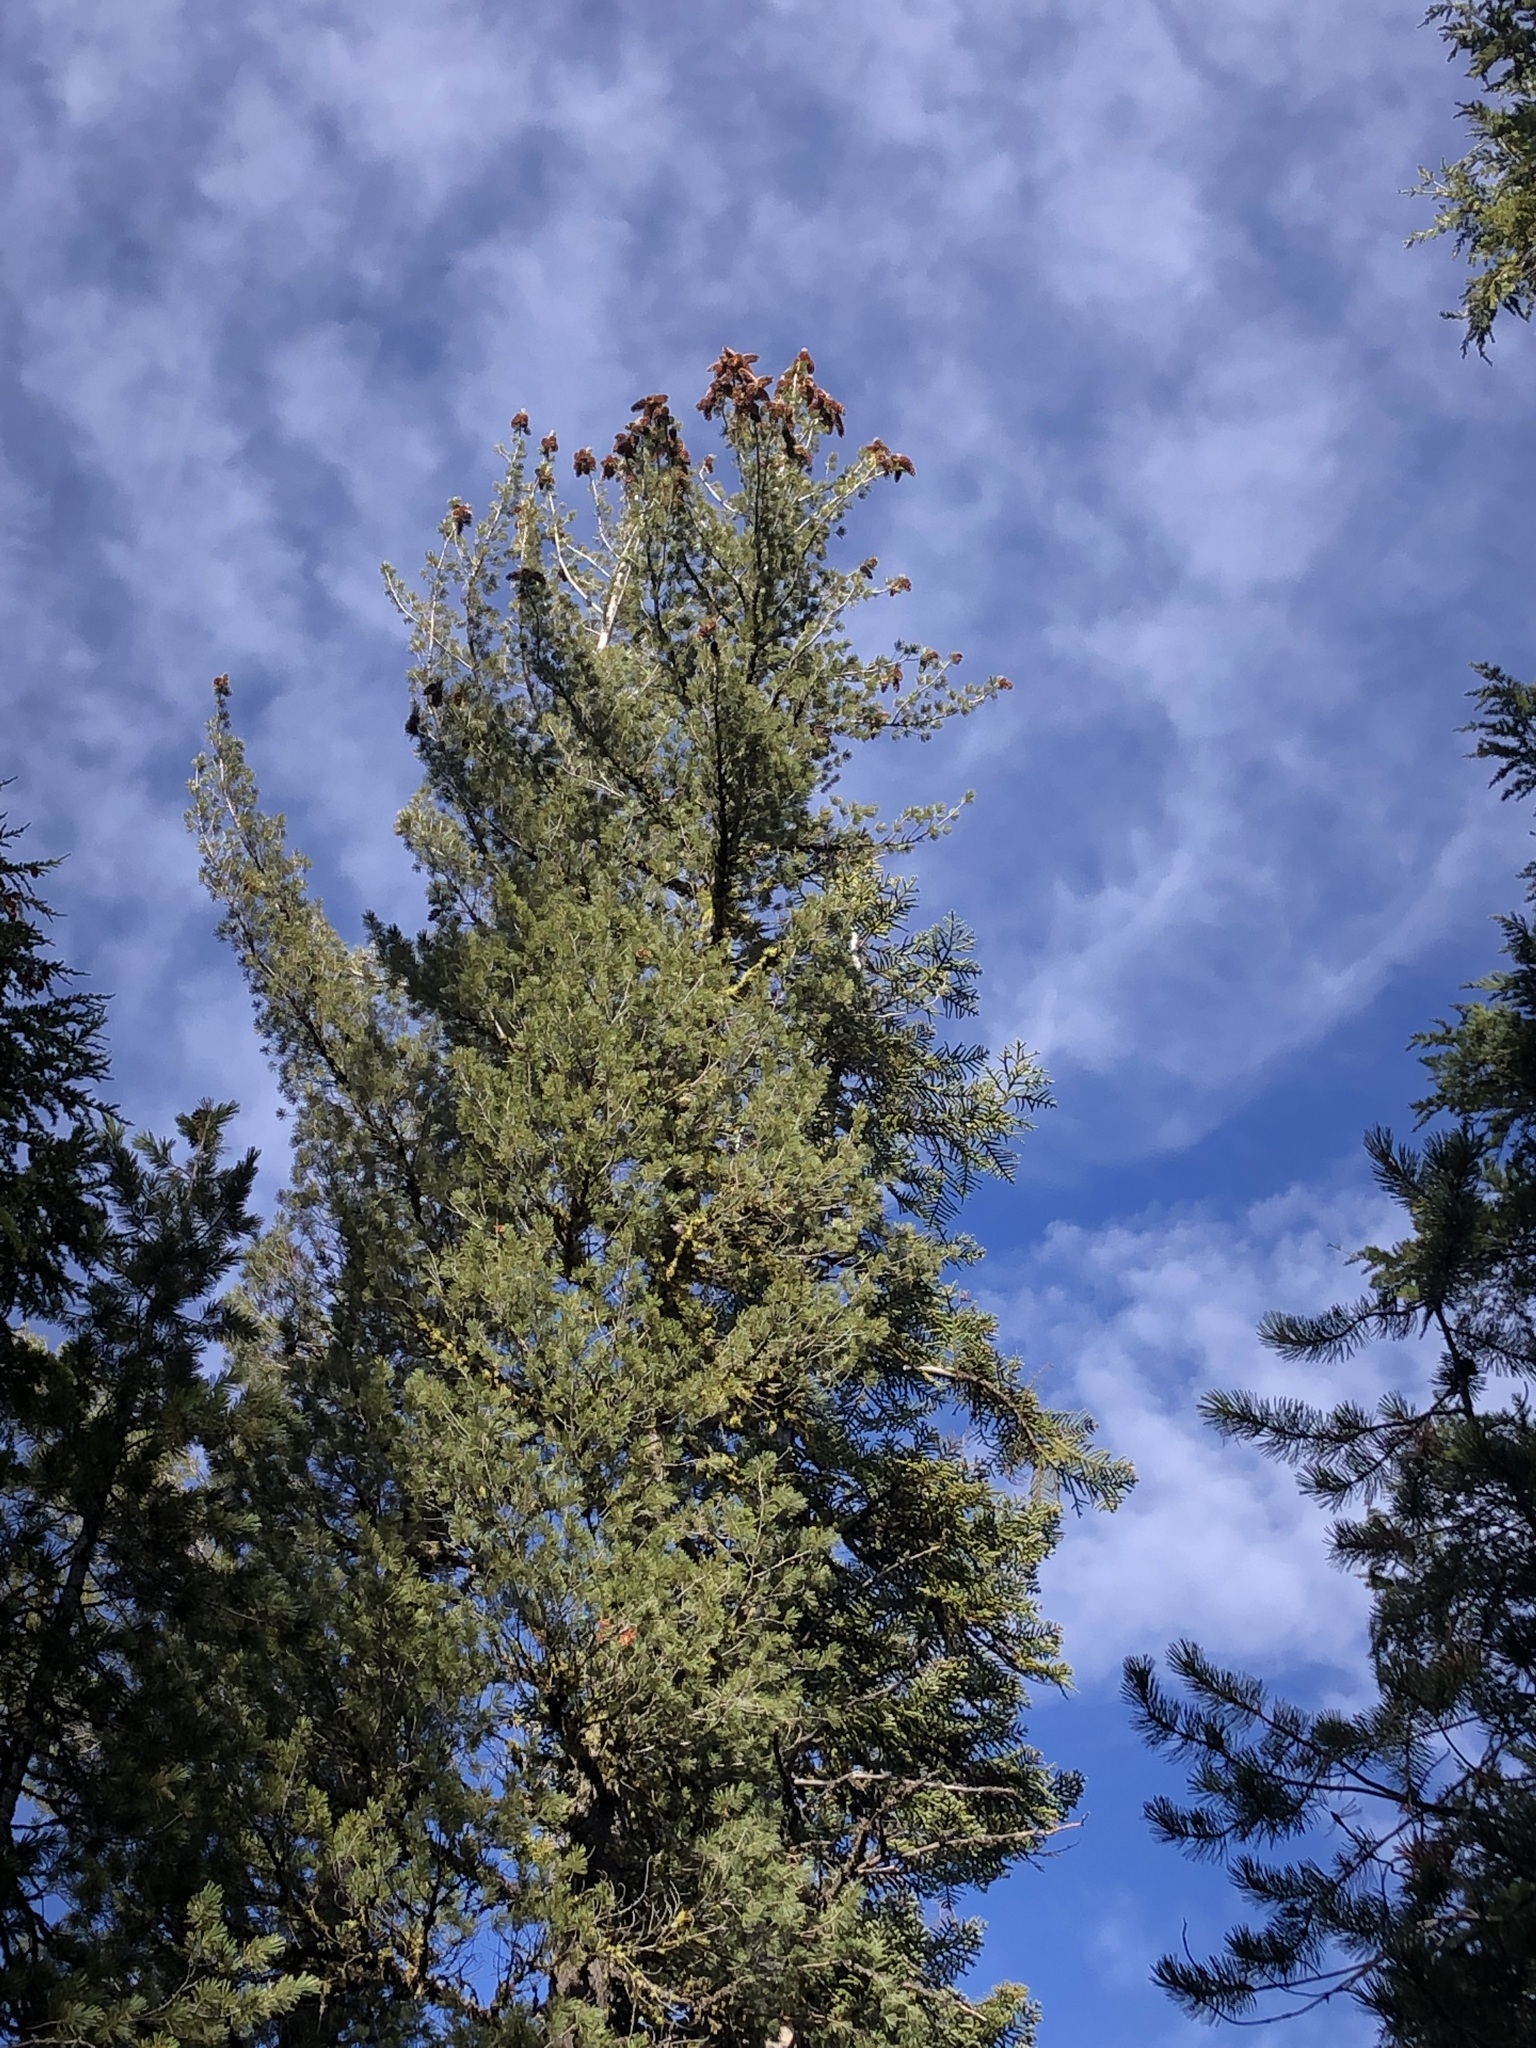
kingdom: Plantae
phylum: Tracheophyta
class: Pinopsida
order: Pinales
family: Pinaceae
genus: Pinus
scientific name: Pinus monticola
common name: Western white pine
